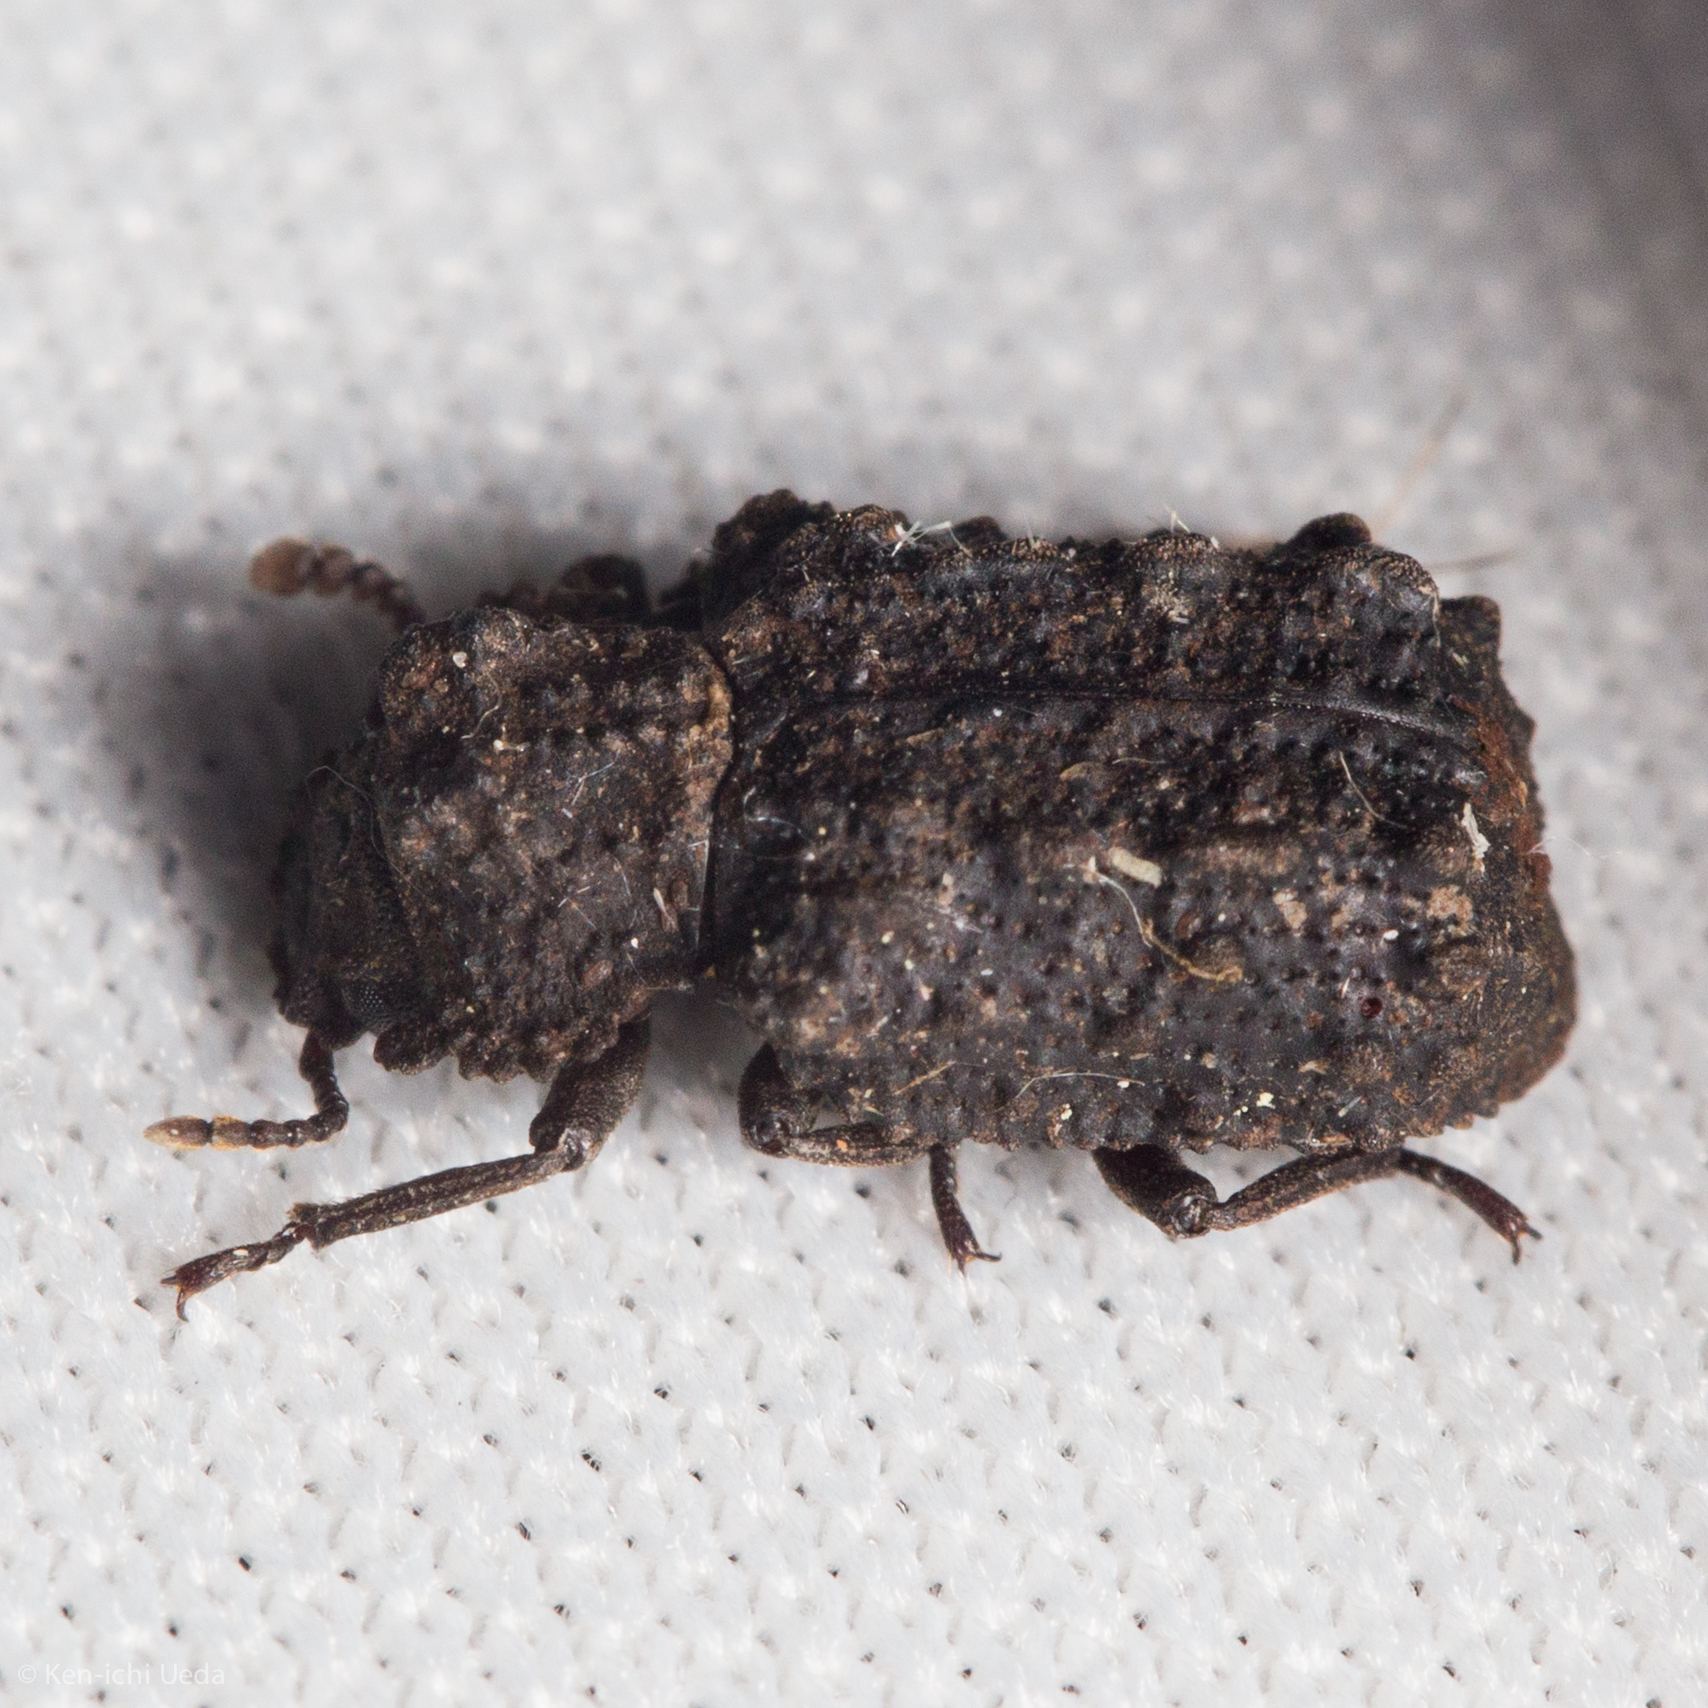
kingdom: Animalia
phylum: Arthropoda
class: Insecta
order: Coleoptera
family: Tenebrionidae
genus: Gnatocerus
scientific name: Gnatocerus cornutus
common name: Broad-horned flour beetle
